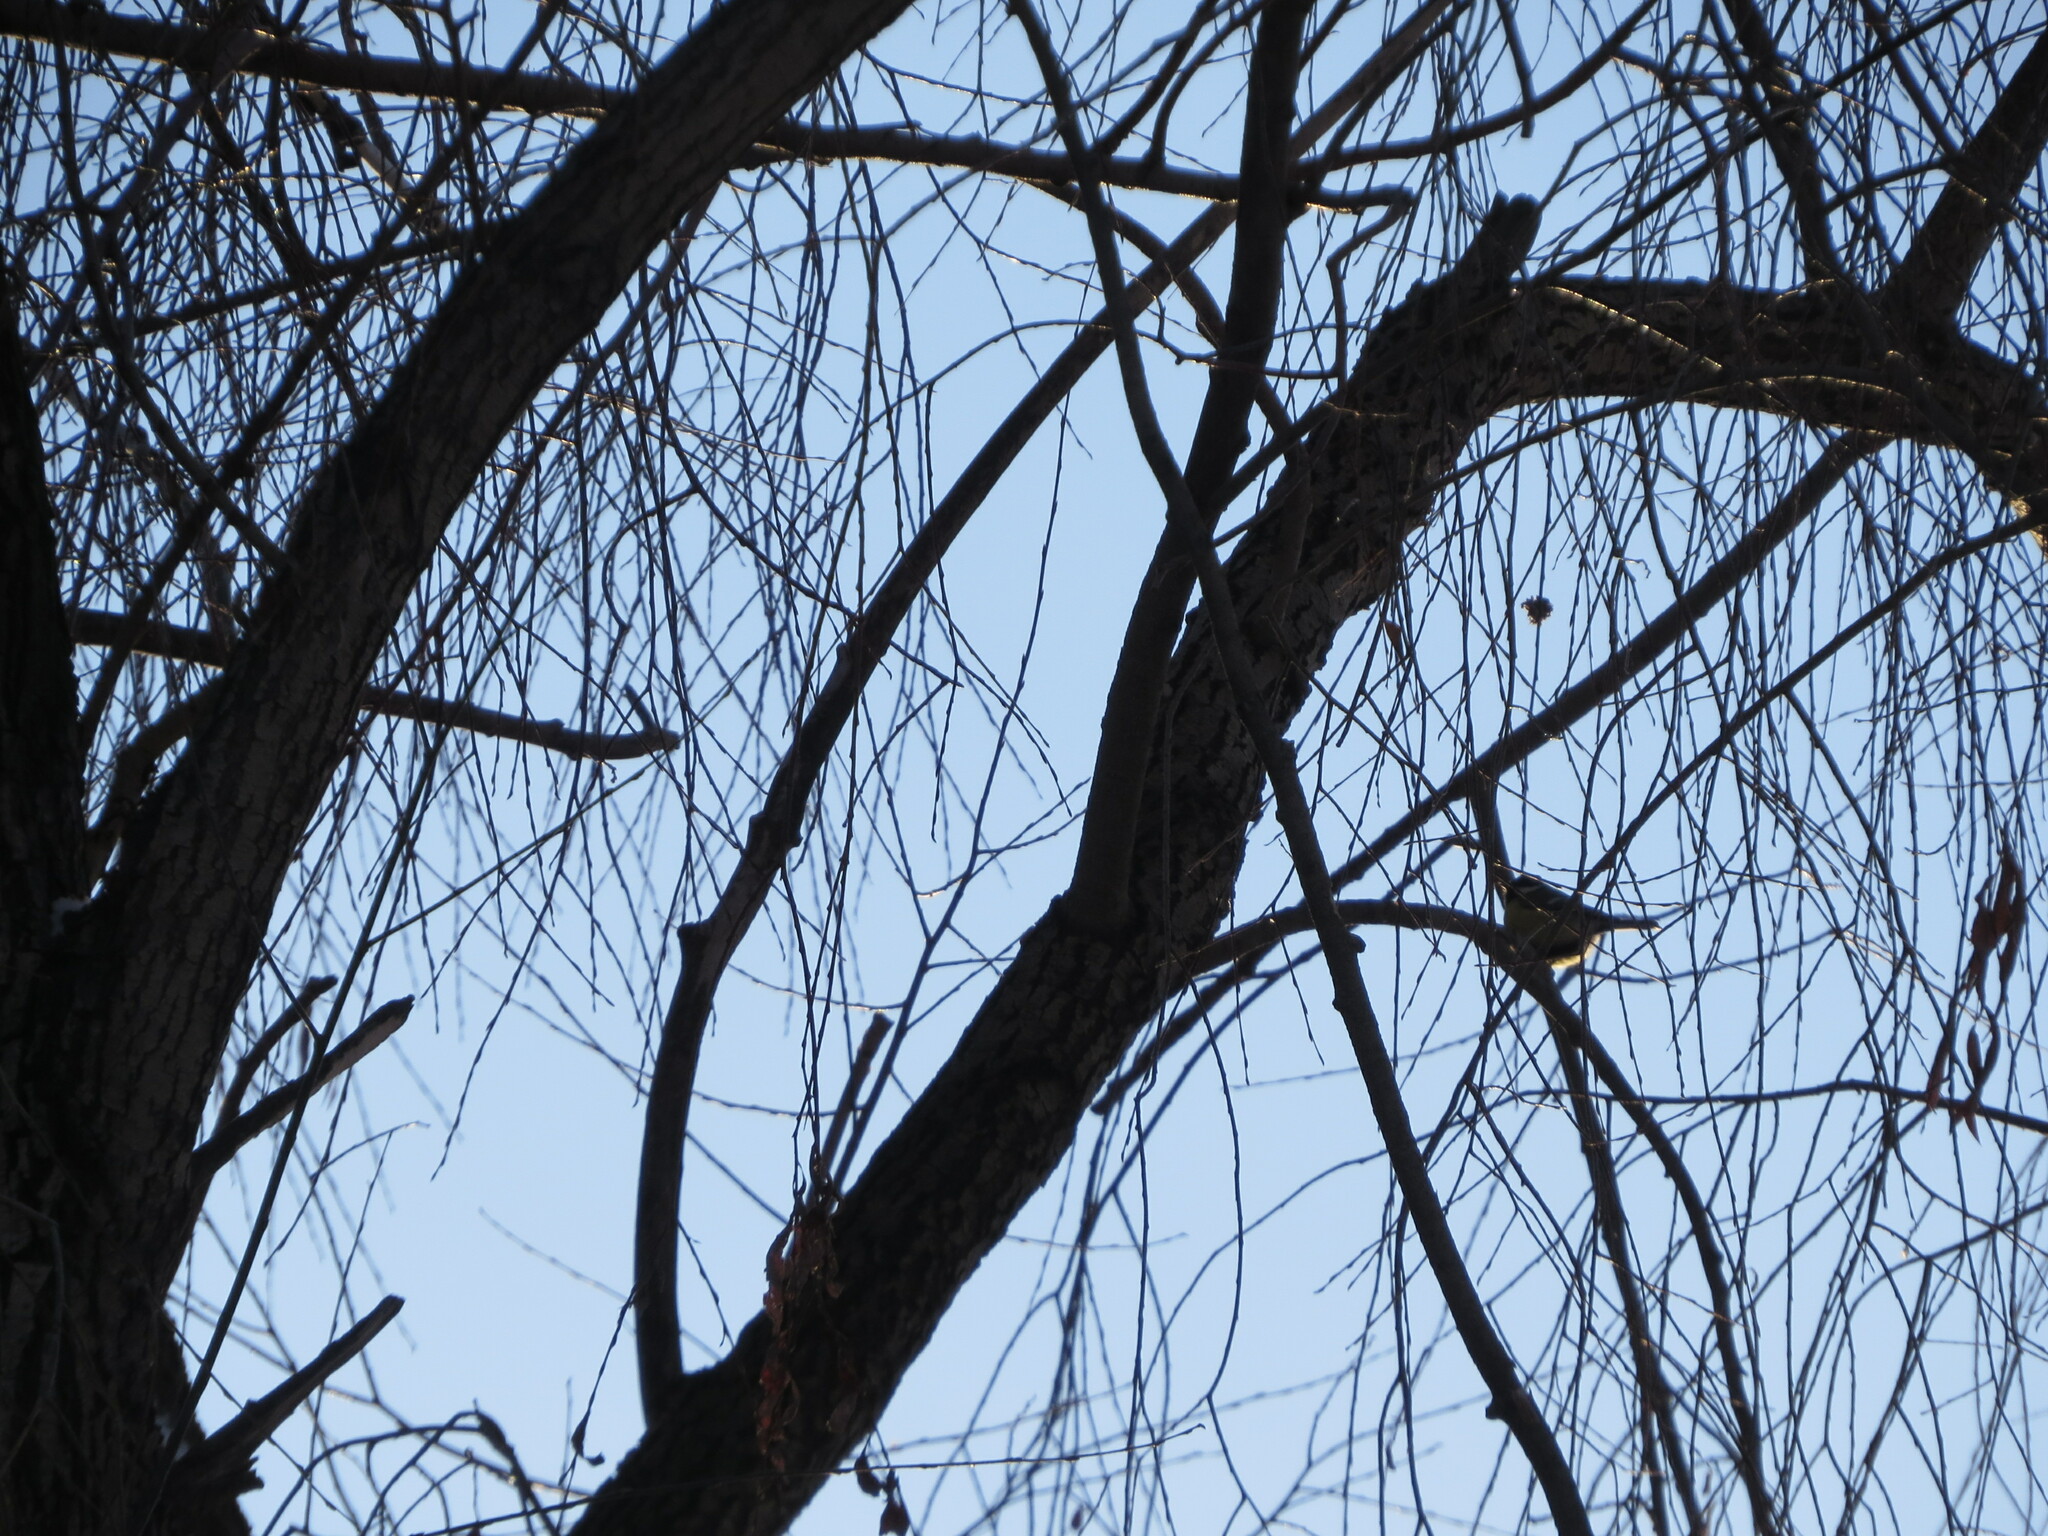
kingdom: Animalia
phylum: Chordata
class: Aves
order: Passeriformes
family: Paridae
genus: Parus
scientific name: Parus major
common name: Great tit
